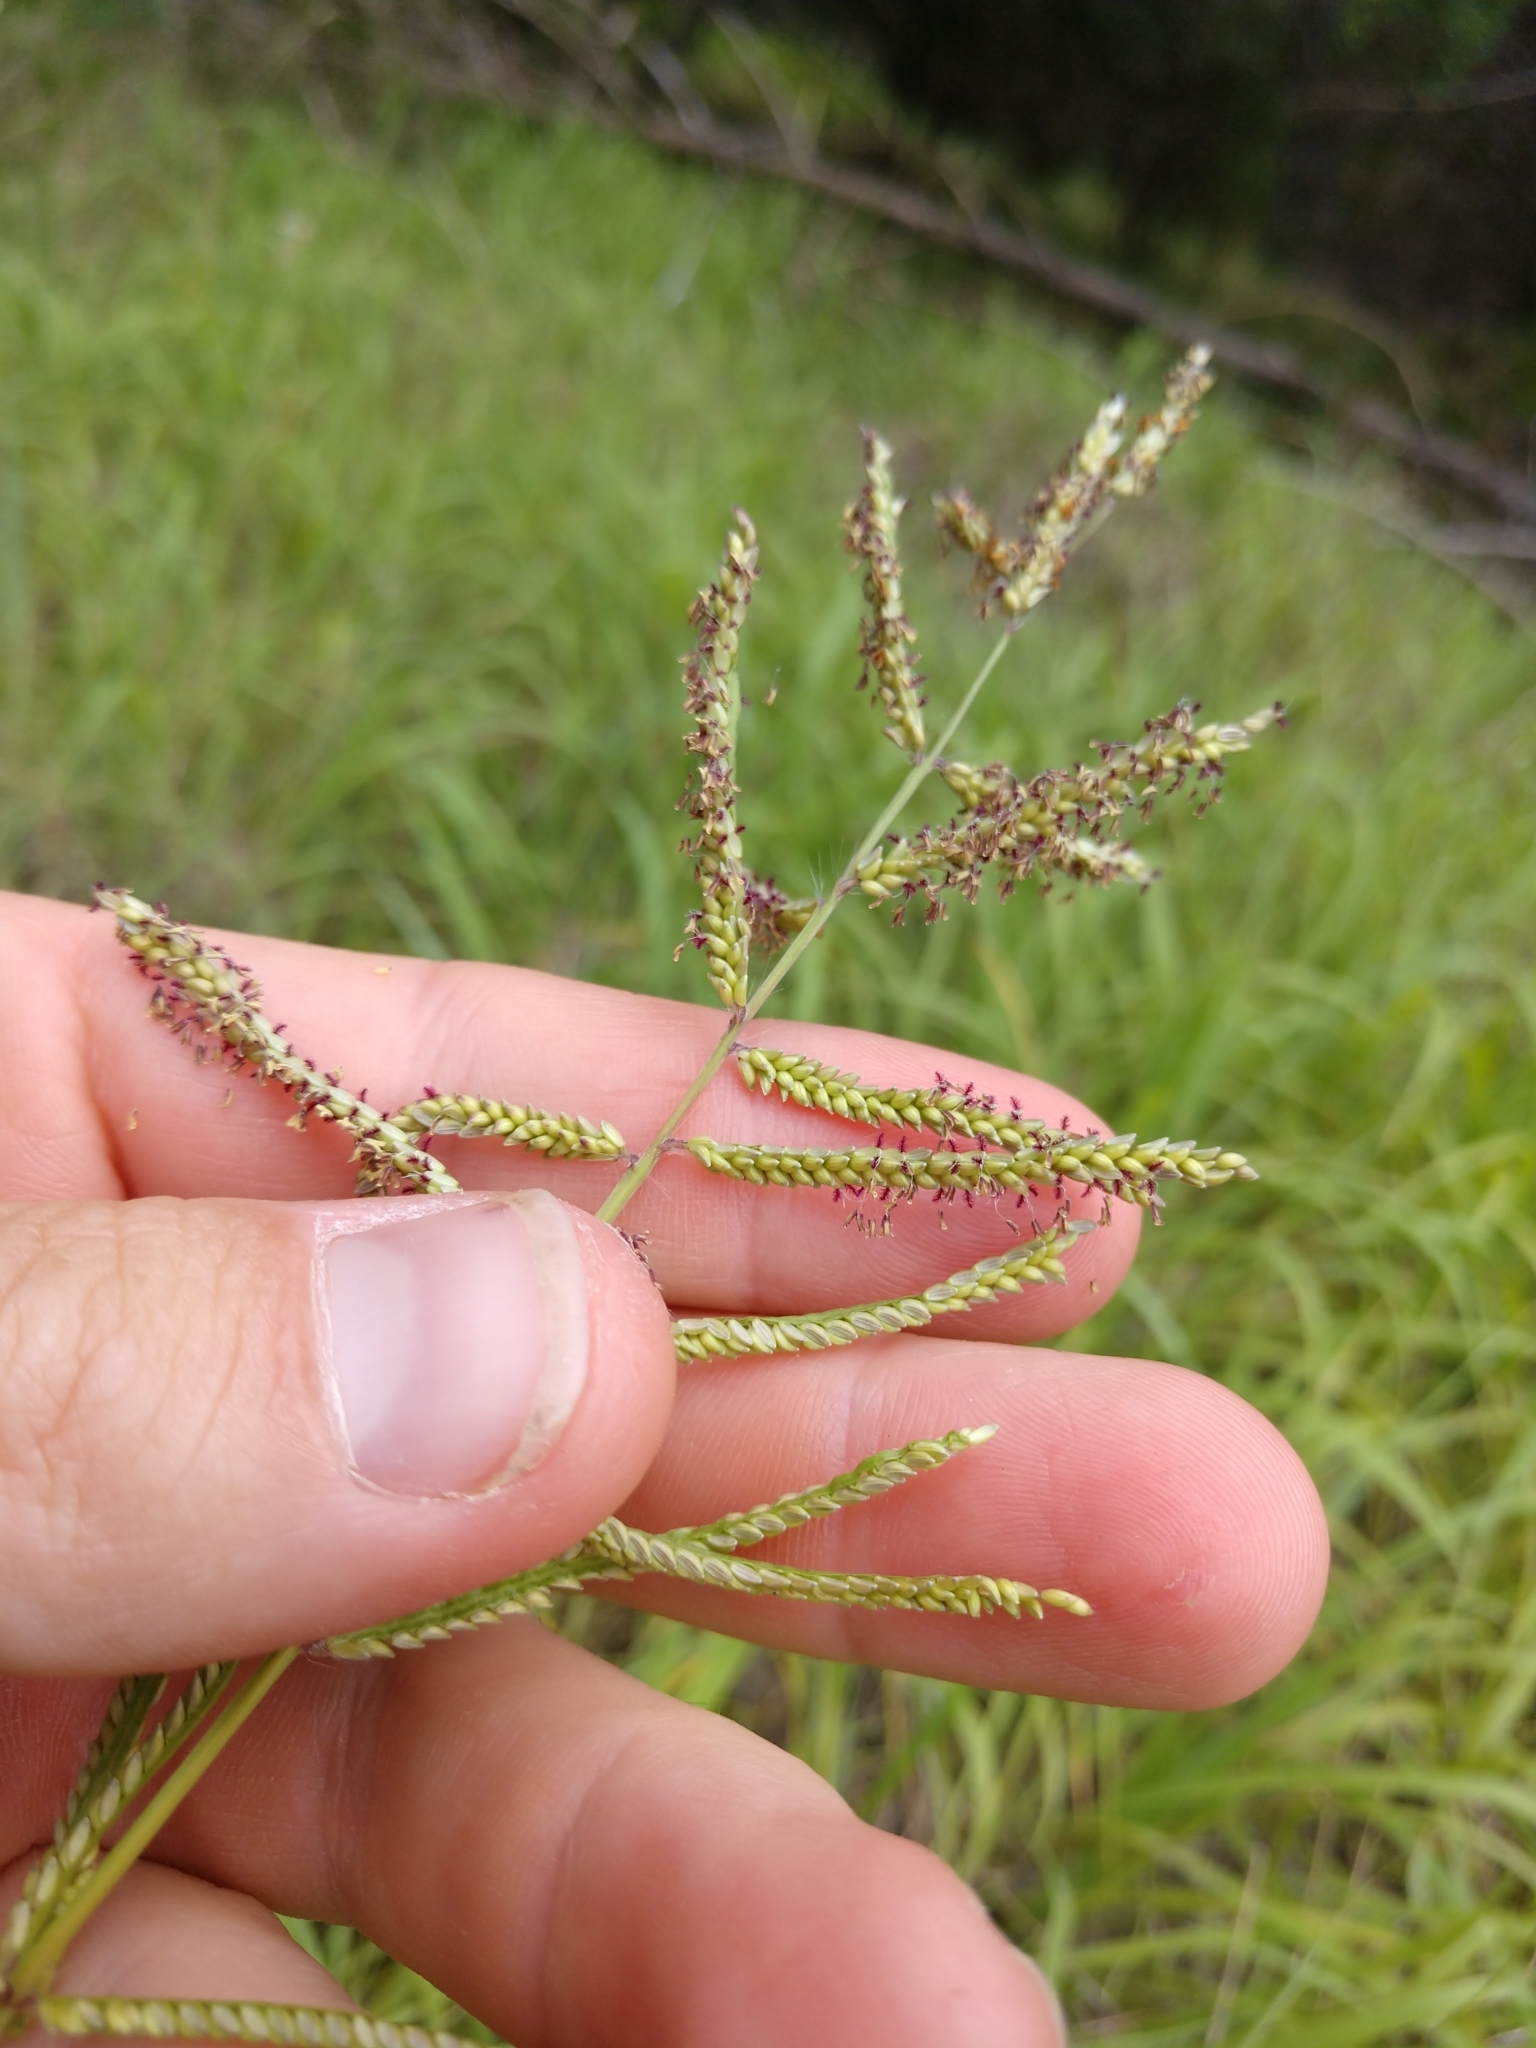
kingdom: Plantae
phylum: Tracheophyta
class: Liliopsida
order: Poales
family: Poaceae
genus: Paspalum
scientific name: Paspalum malacophyllum
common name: Ribbed paspalum
